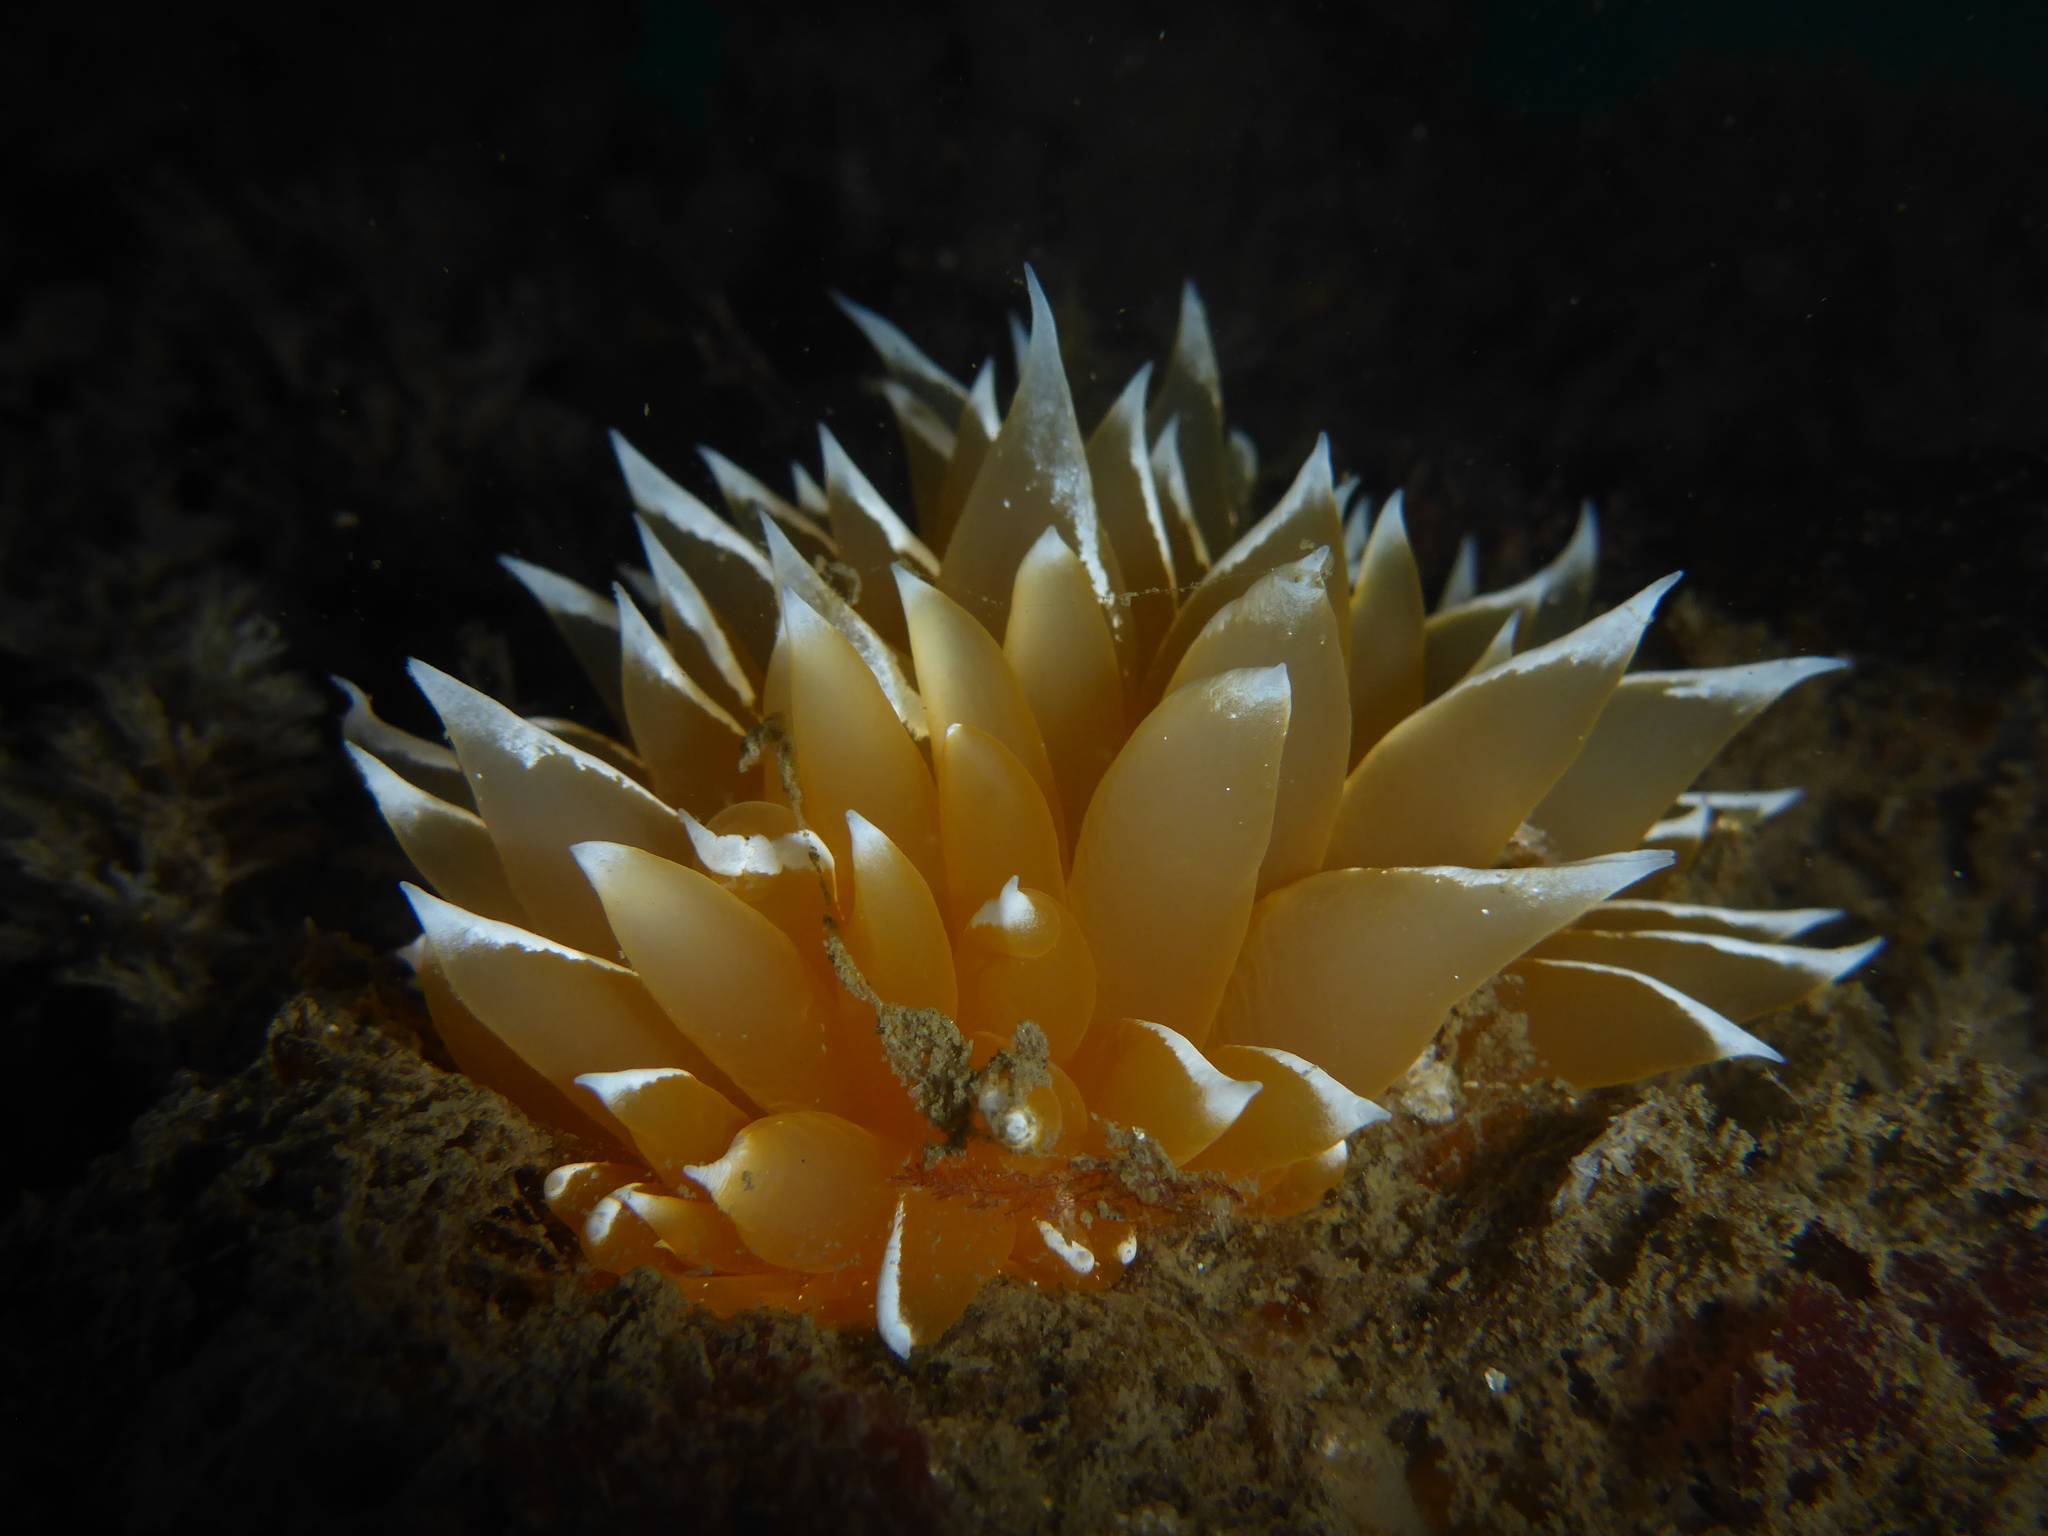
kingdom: Animalia
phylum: Mollusca
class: Gastropoda
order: Nudibranchia
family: Dironidae
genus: Dirona
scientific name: Dirona pellucida
